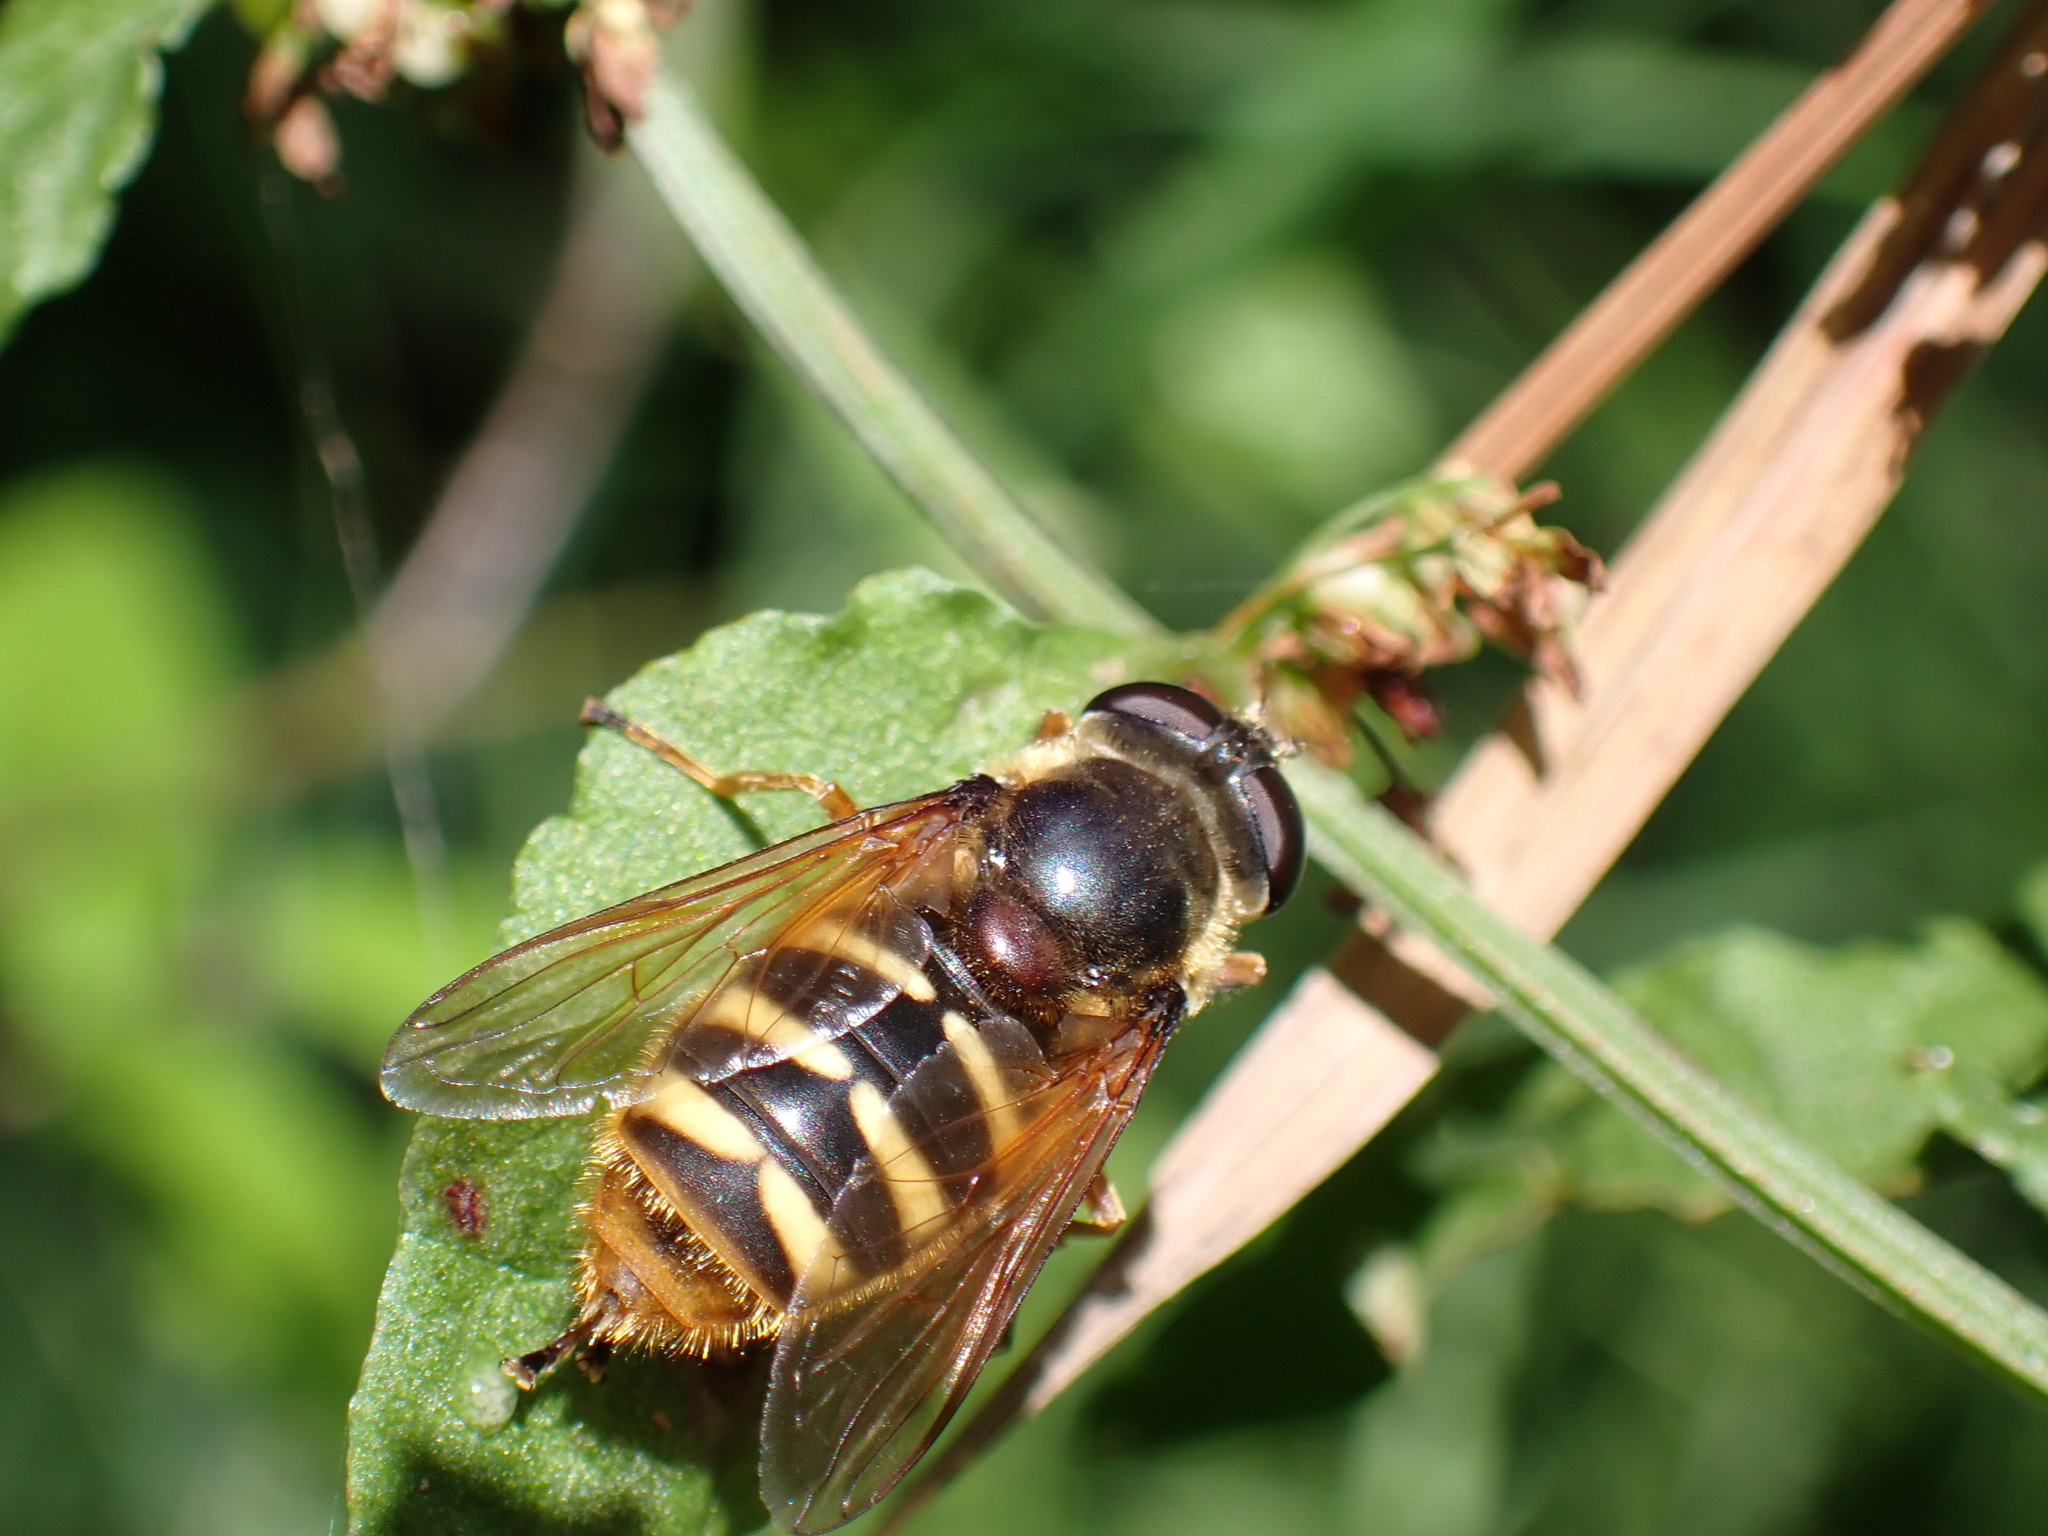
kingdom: Animalia
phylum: Arthropoda
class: Insecta
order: Diptera
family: Syrphidae
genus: Sericomyia
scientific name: Sericomyia silentis
